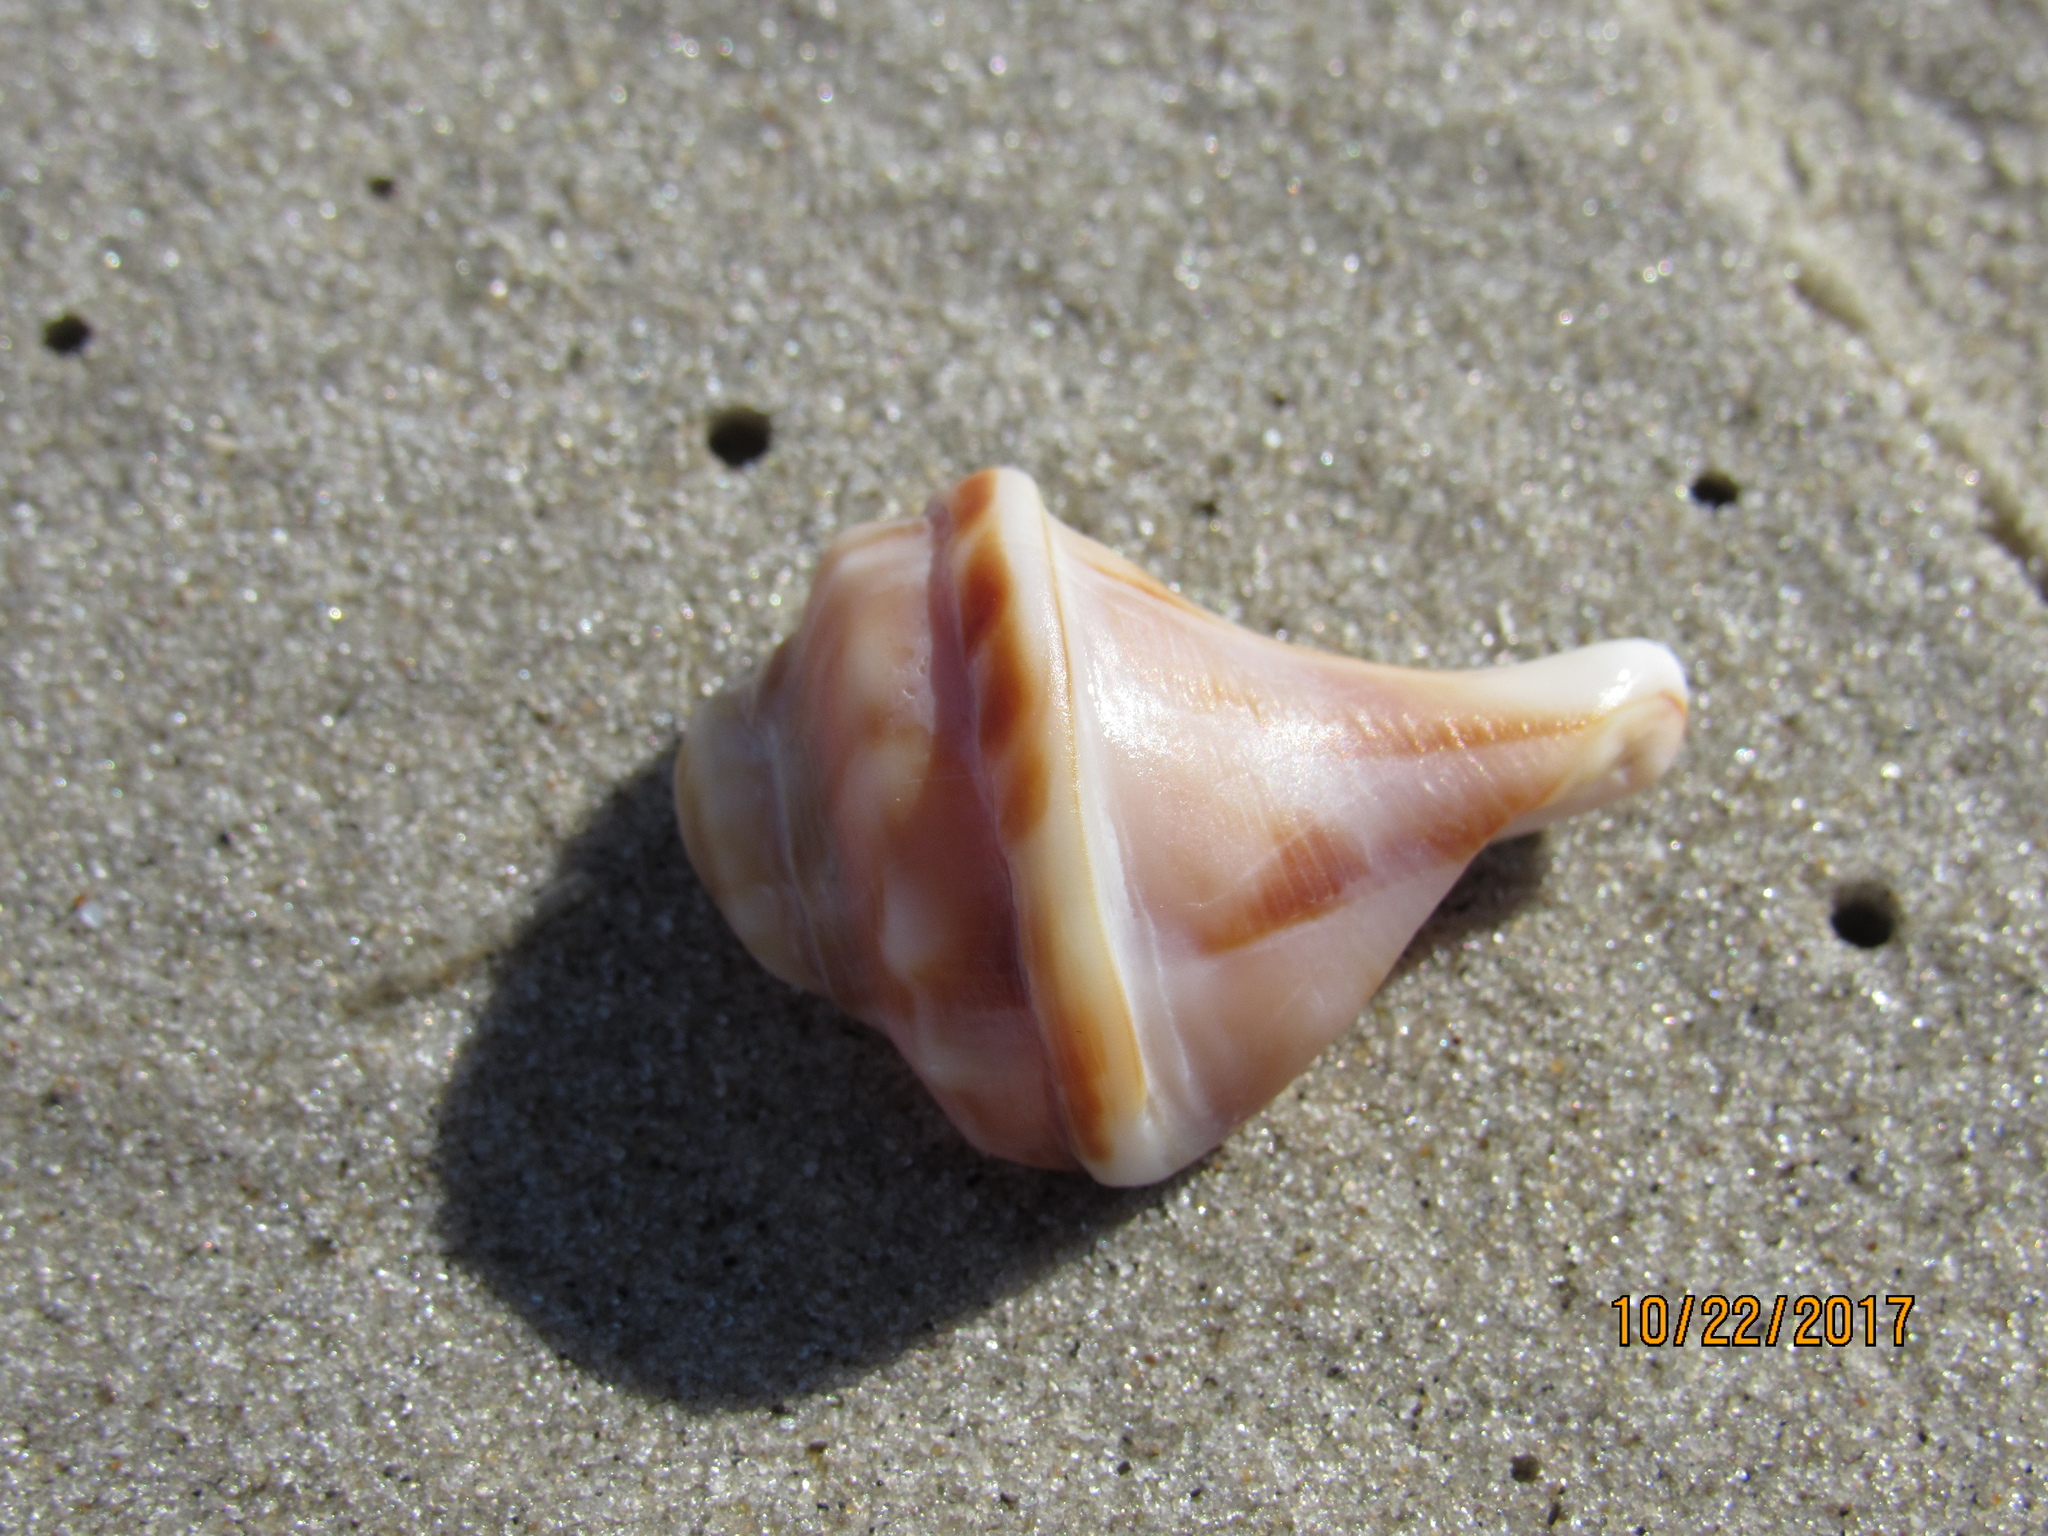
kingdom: Animalia
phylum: Mollusca
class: Gastropoda
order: Neogastropoda
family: Busyconidae
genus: Sinistrofulgur
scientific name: Sinistrofulgur sinistrum
